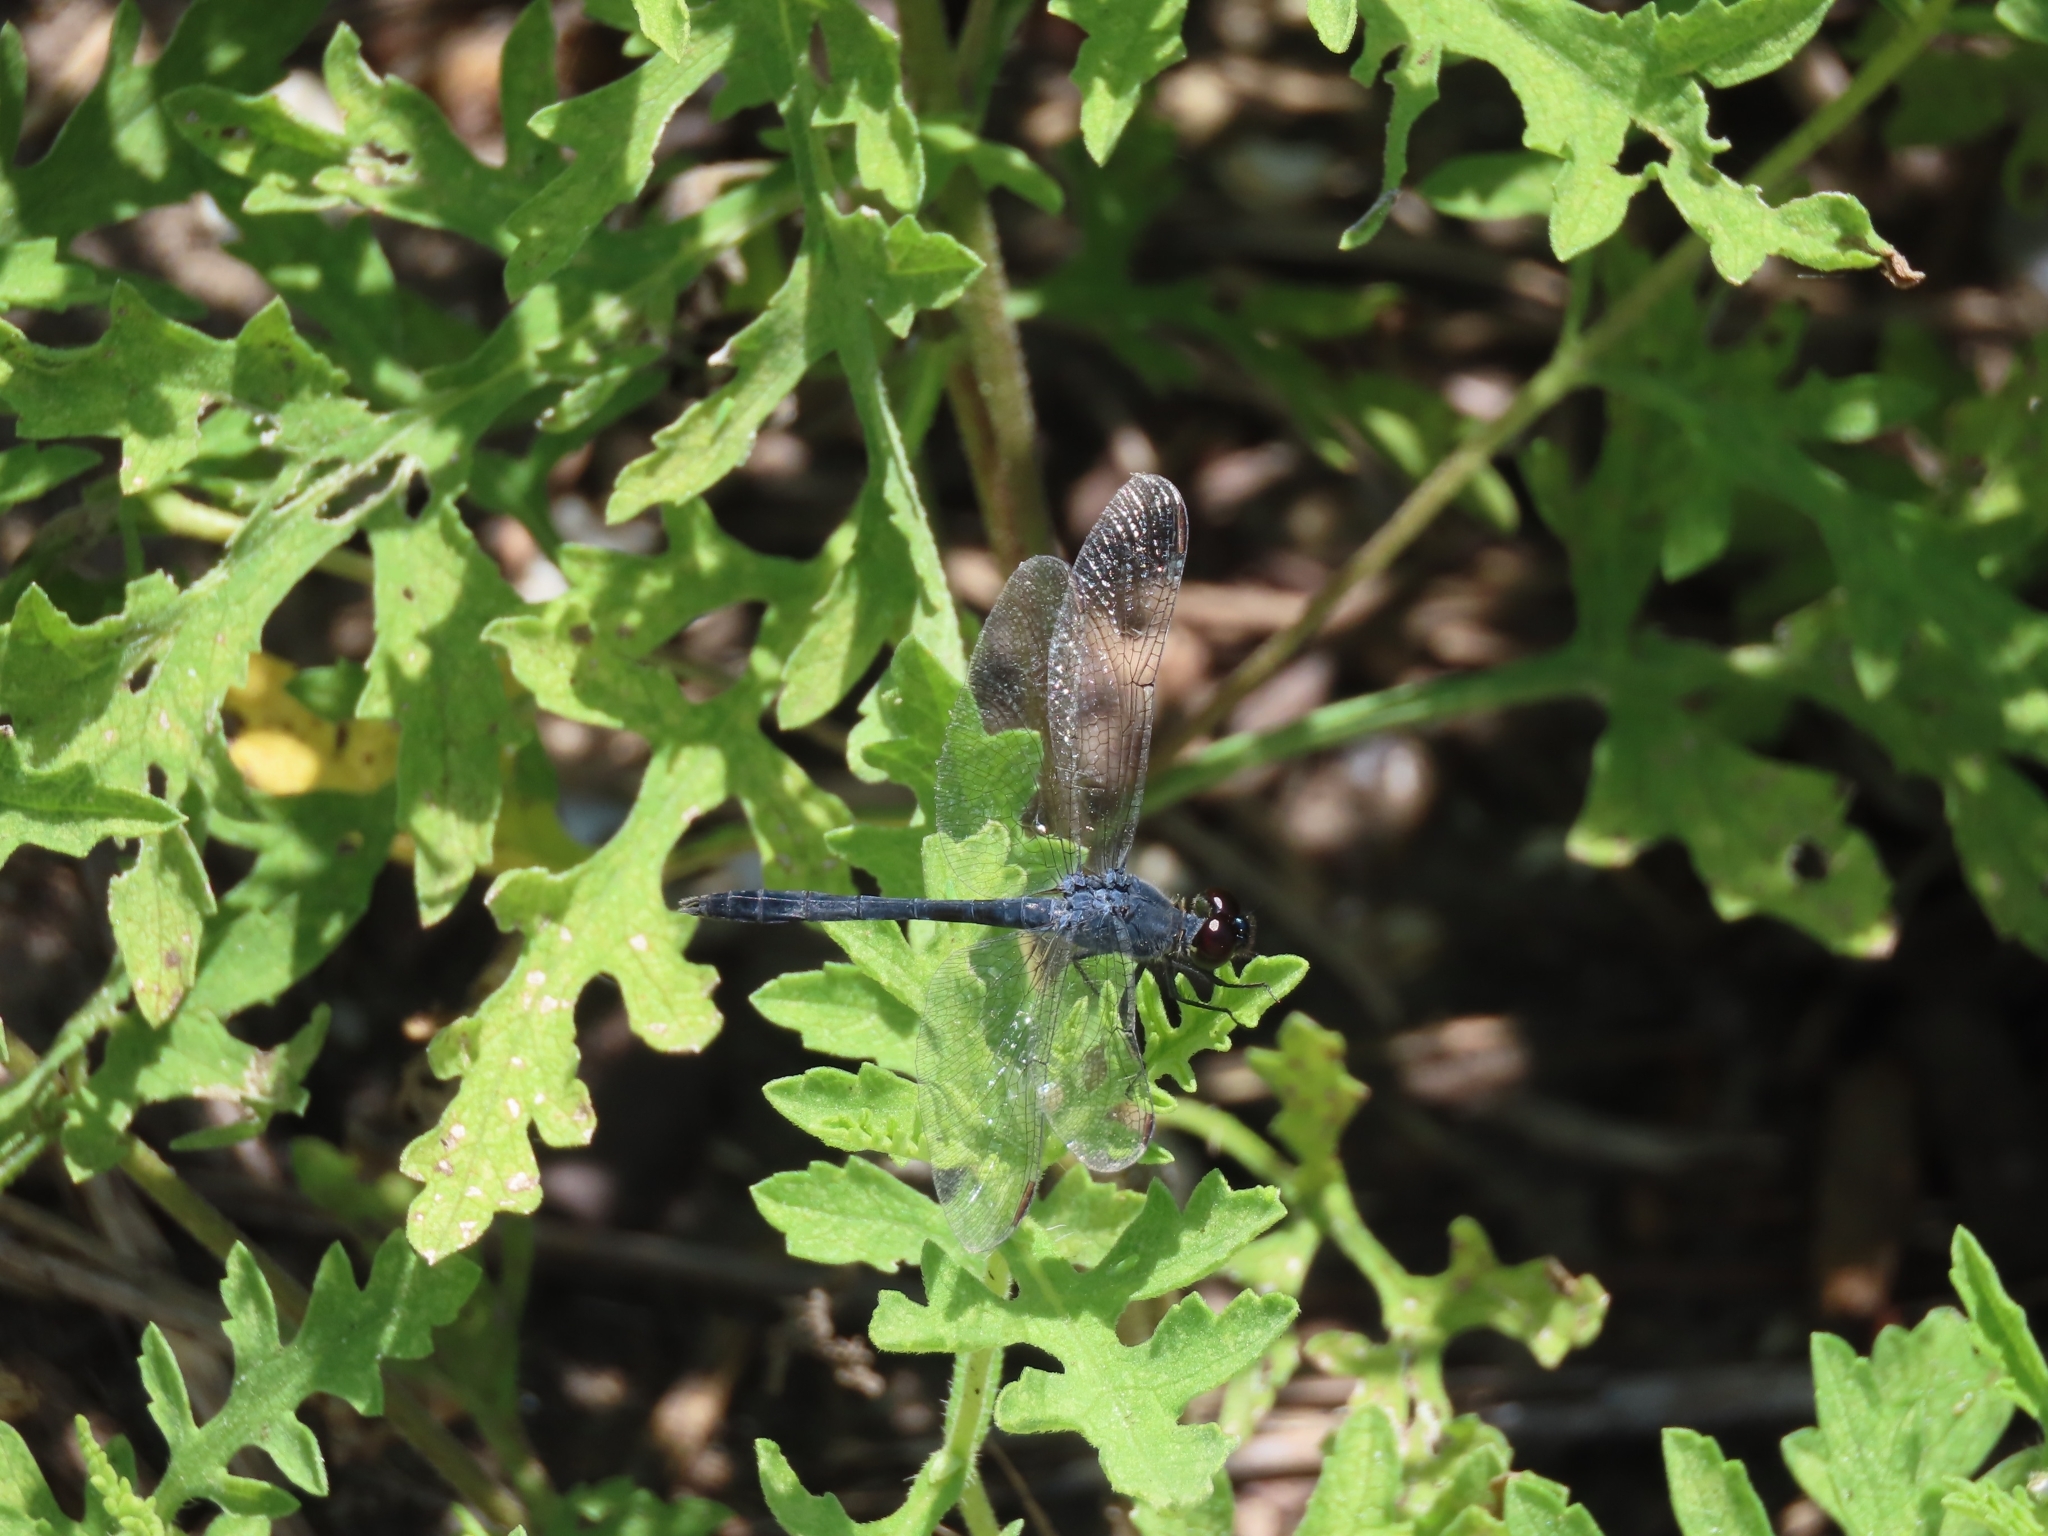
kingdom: Animalia
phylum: Arthropoda
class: Insecta
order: Odonata
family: Libellulidae
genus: Erythrodiplax
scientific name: Erythrodiplax berenice
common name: Seaside dragonlet
